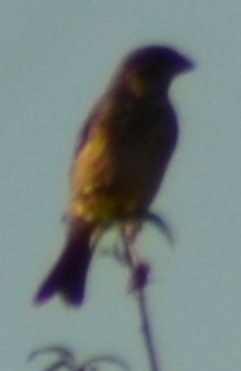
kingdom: Animalia
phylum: Chordata
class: Aves
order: Passeriformes
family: Emberizidae
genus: Emberiza
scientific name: Emberiza calandra
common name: Corn bunting
